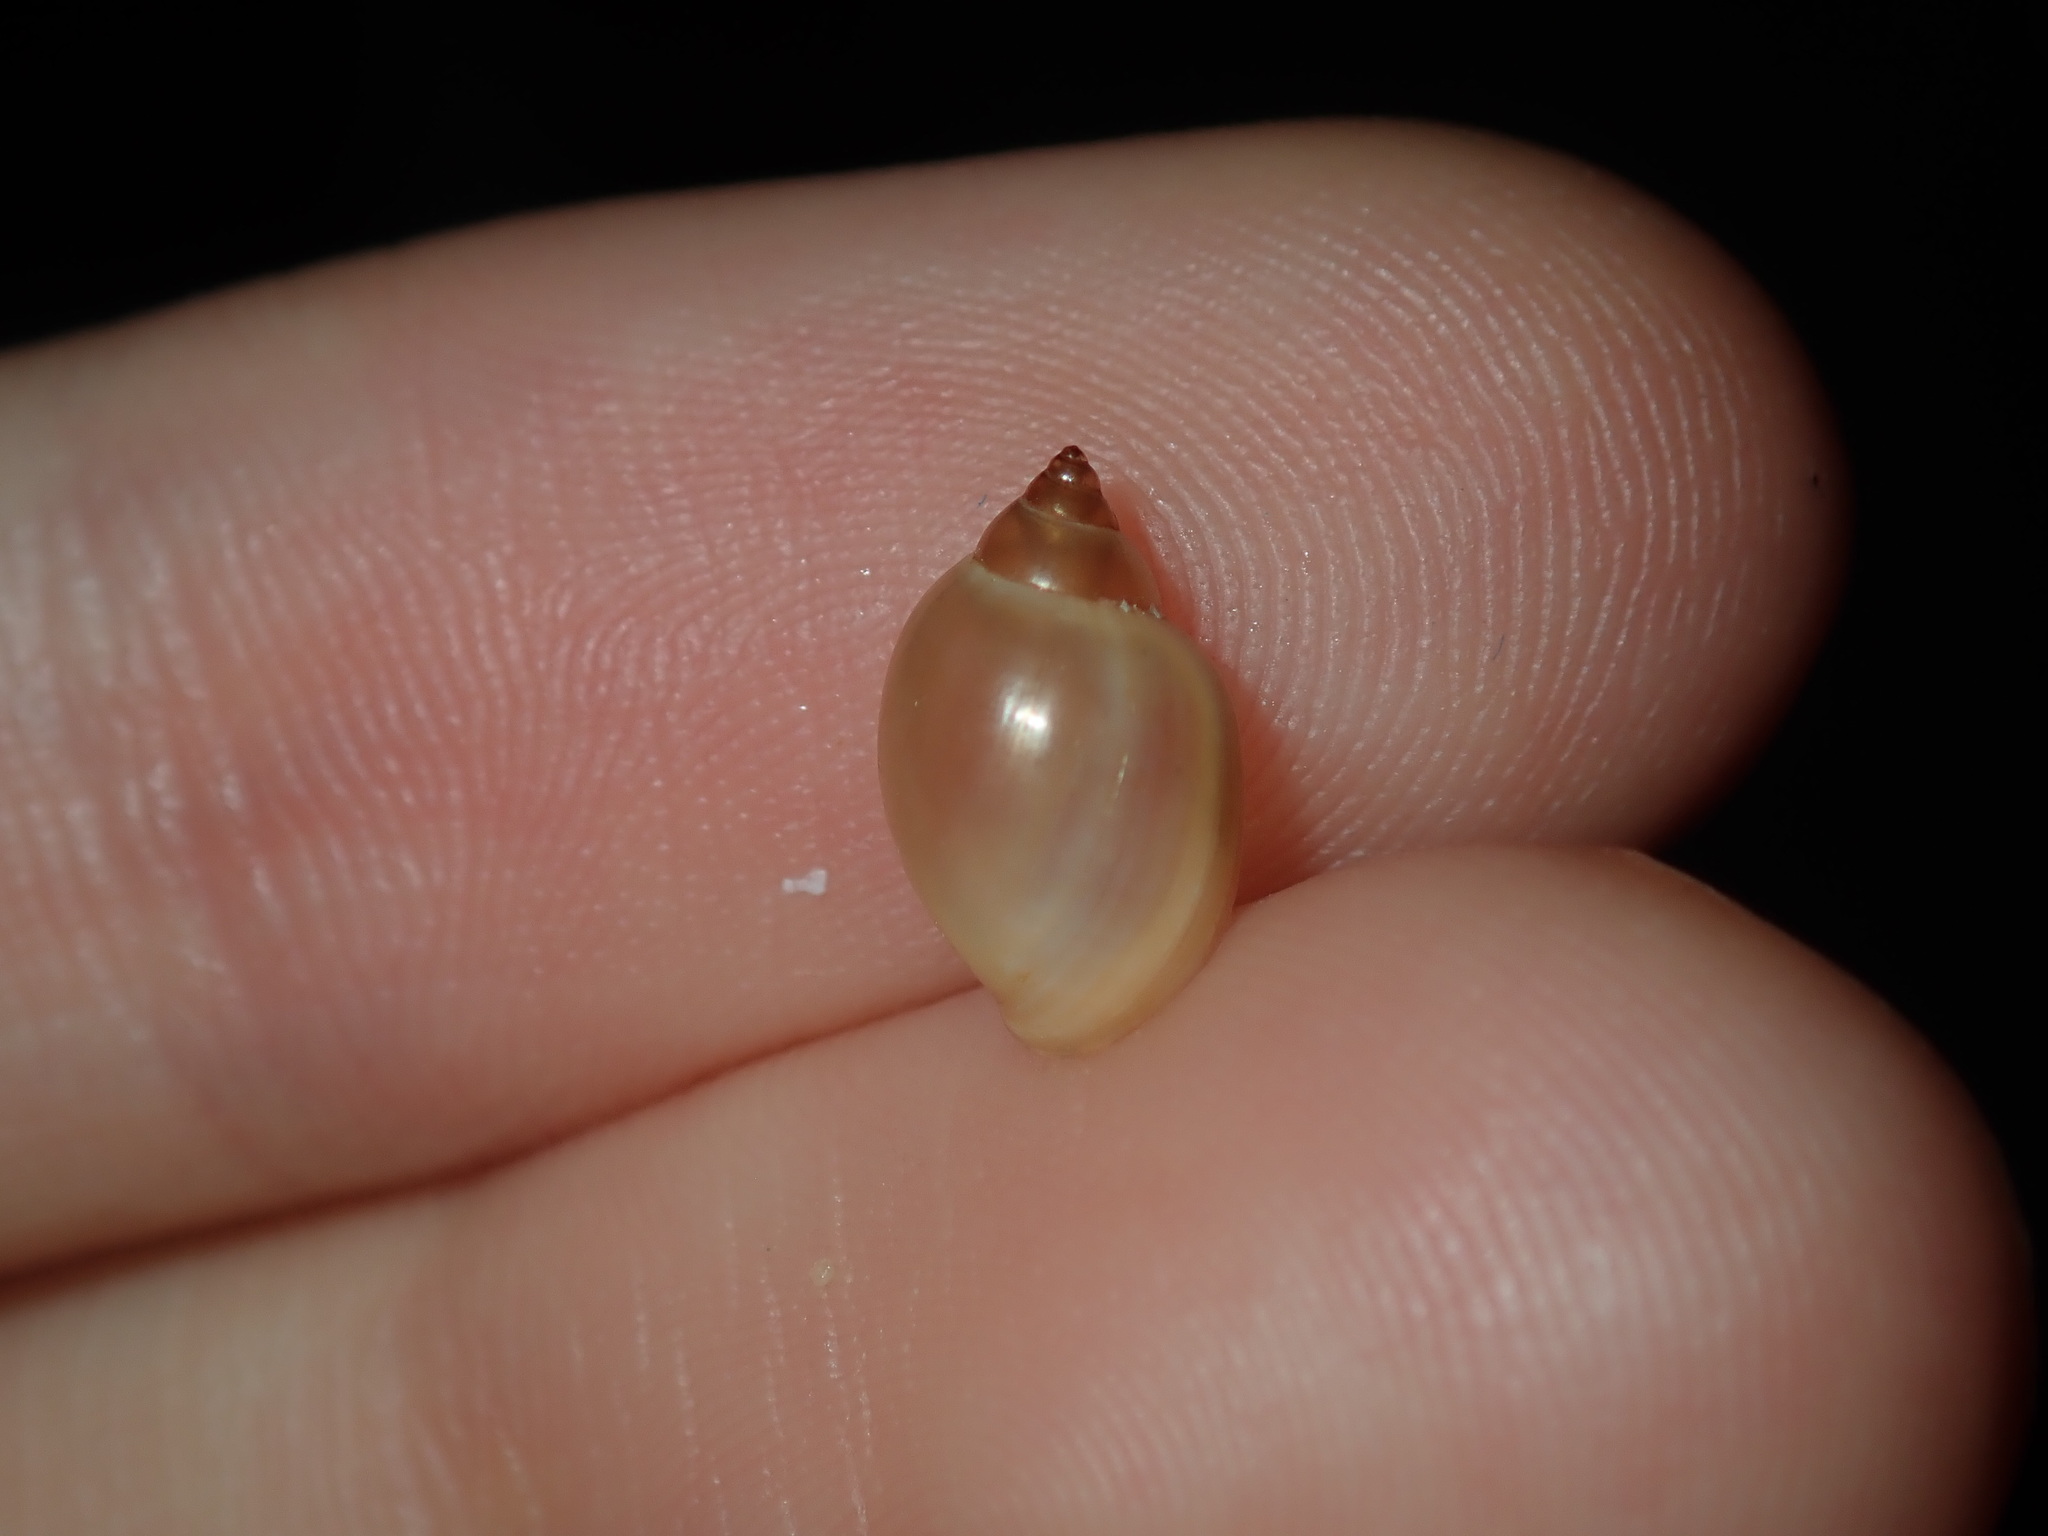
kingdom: Animalia
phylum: Mollusca
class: Gastropoda
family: Physidae
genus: Physella
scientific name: Physella acuta
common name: European physa
